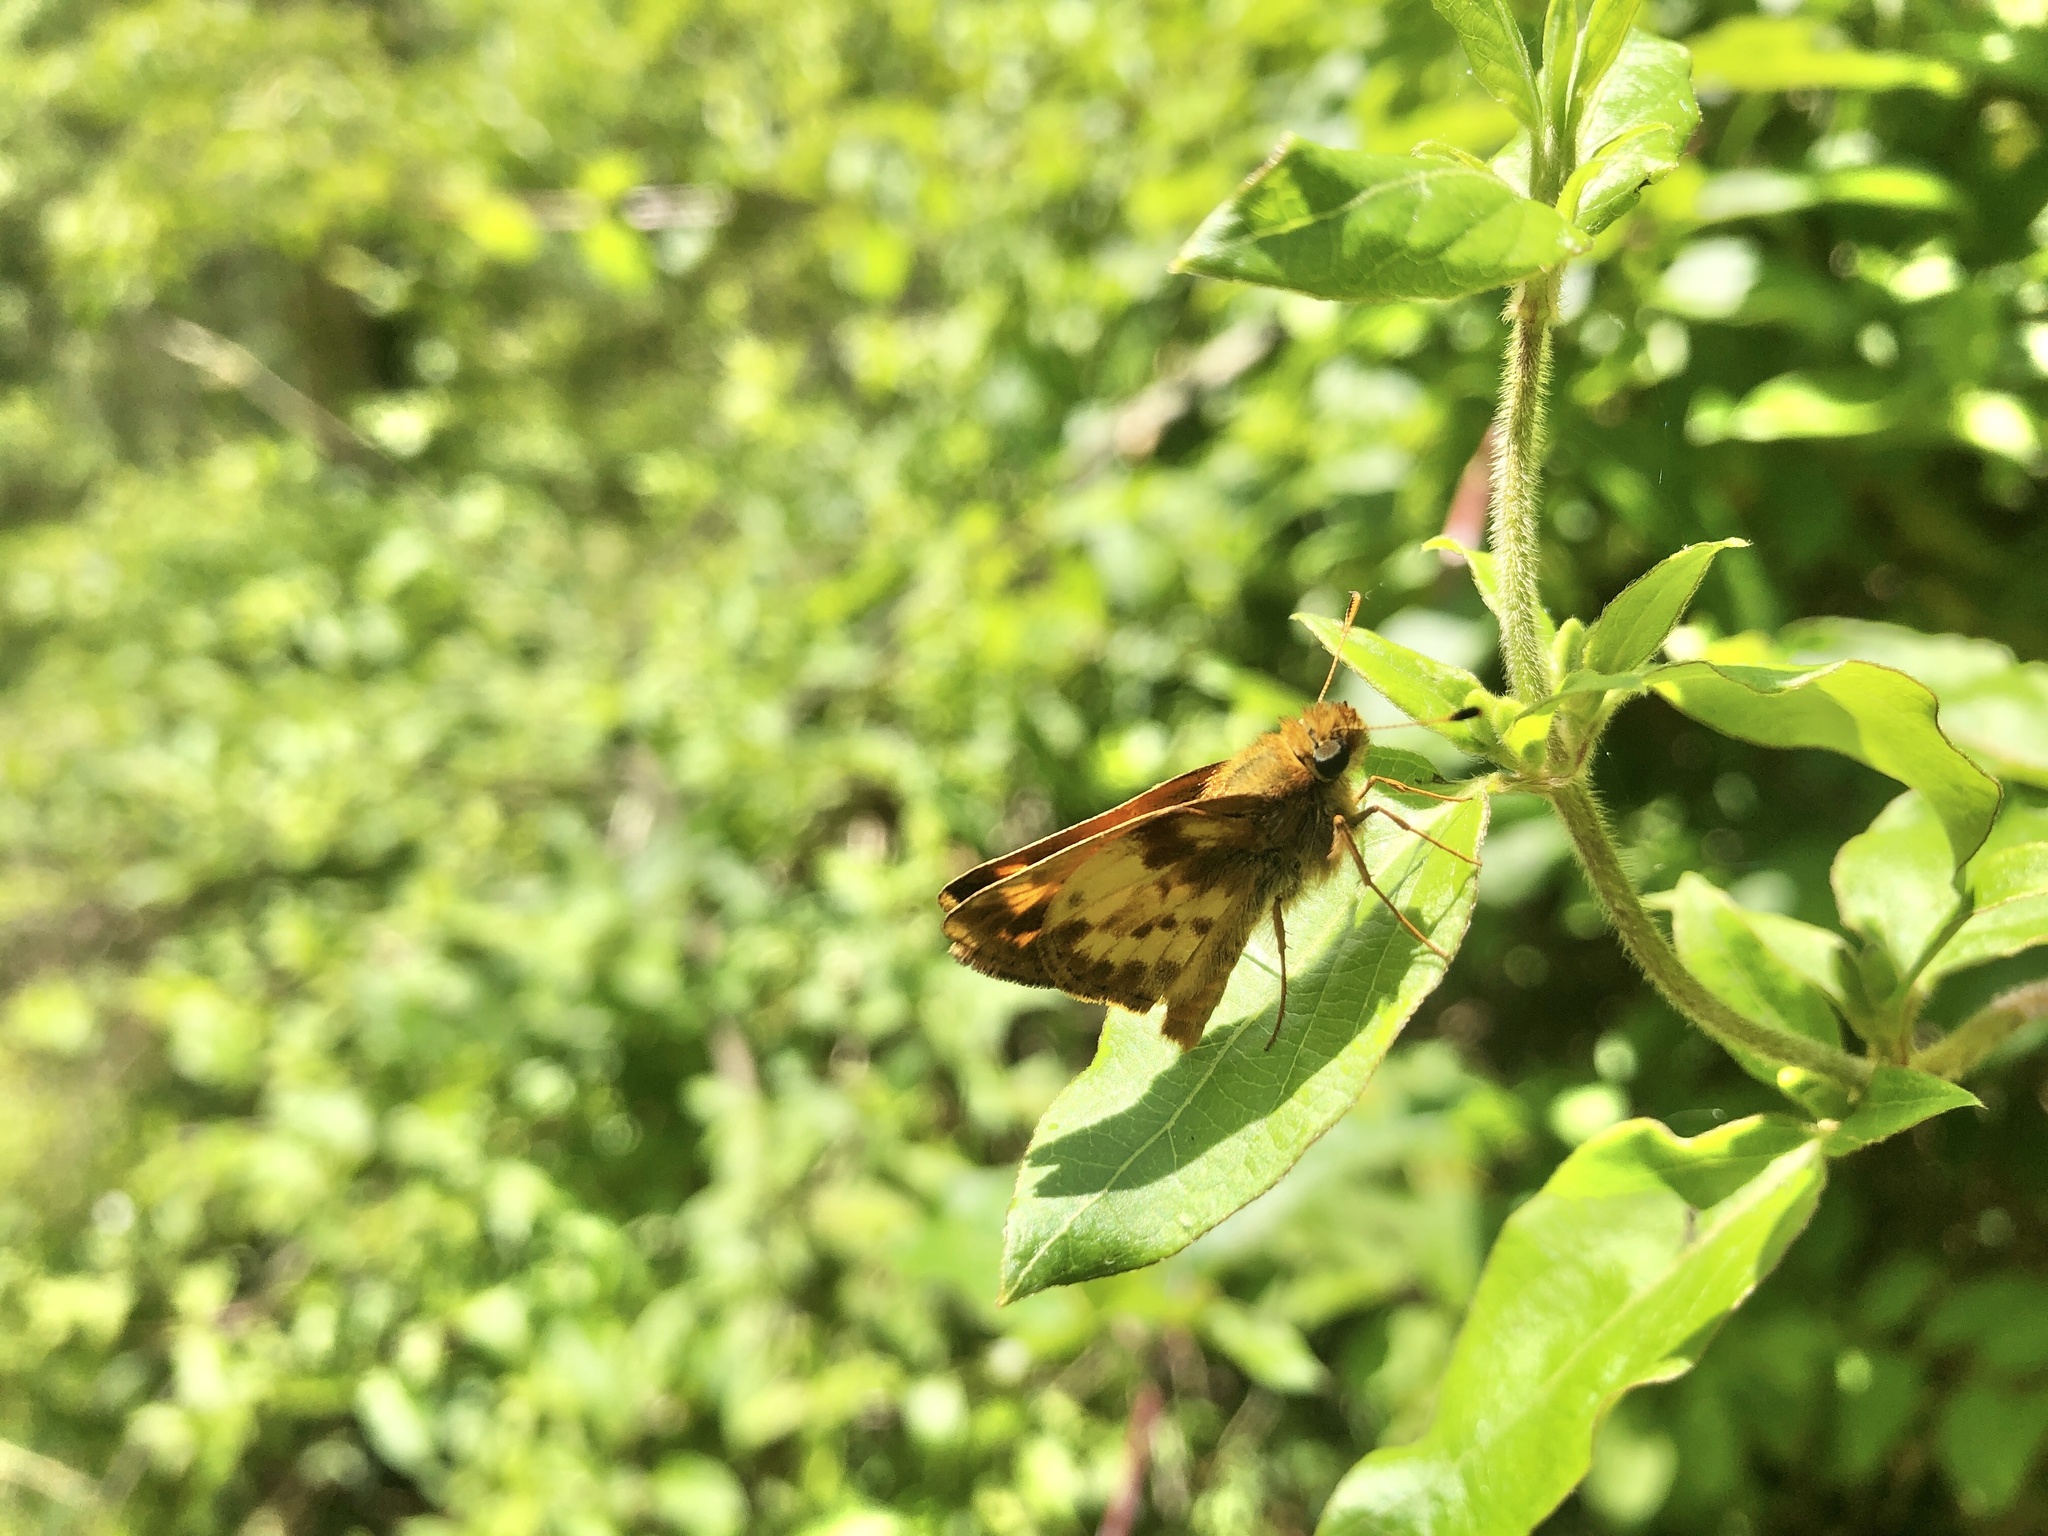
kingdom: Animalia
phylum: Arthropoda
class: Insecta
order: Lepidoptera
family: Hesperiidae
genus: Lon
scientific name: Lon zabulon
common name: Zabulon skipper
